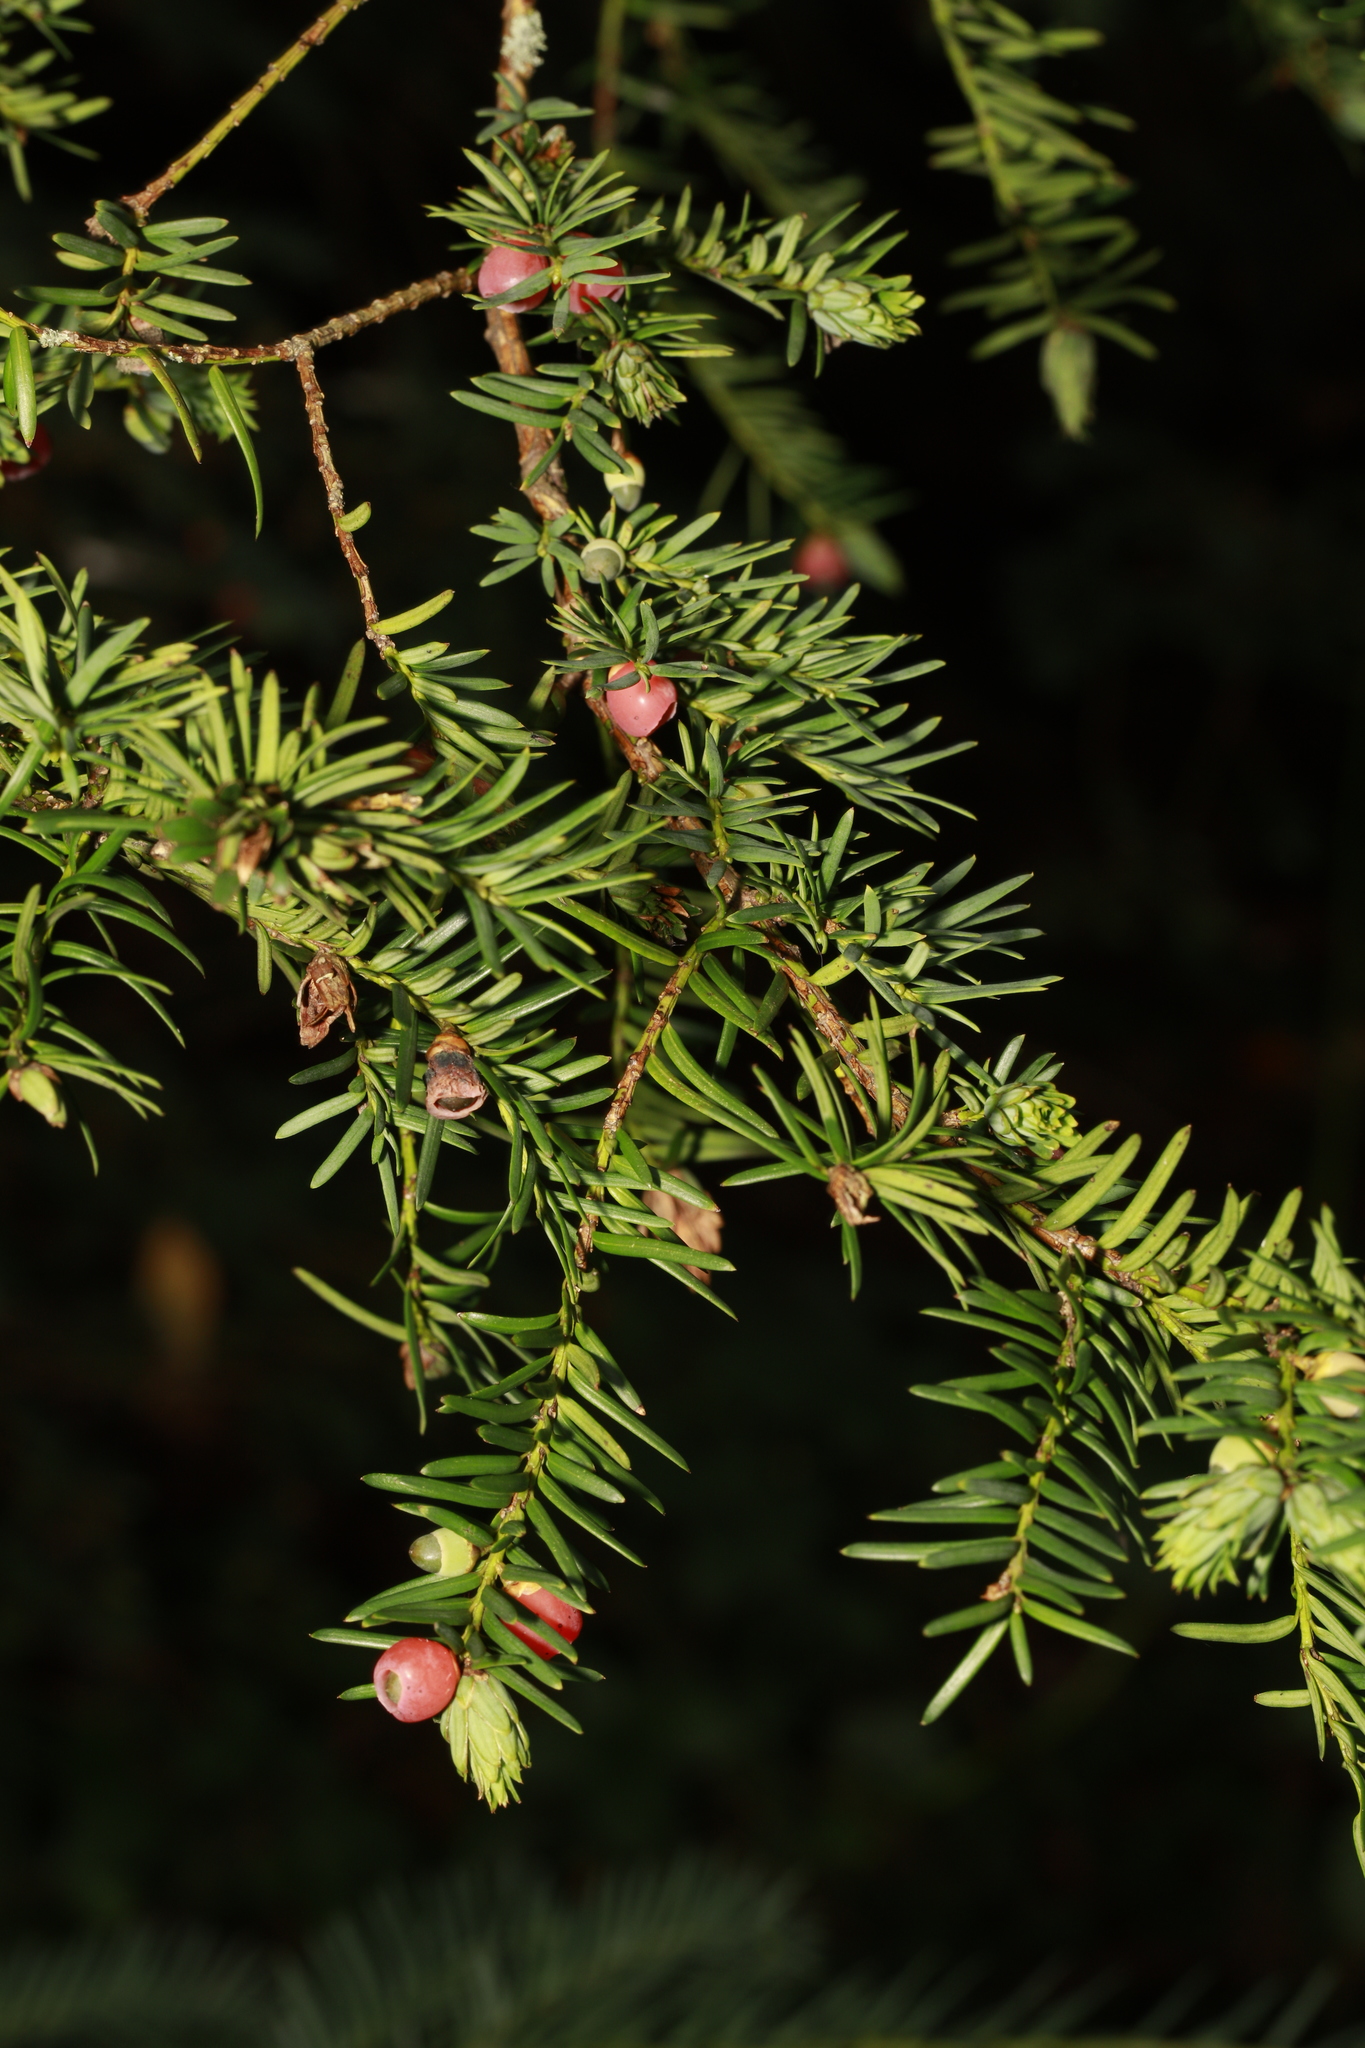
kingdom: Plantae
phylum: Tracheophyta
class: Pinopsida
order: Pinales
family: Taxaceae
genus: Taxus
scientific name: Taxus baccata
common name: Yew
